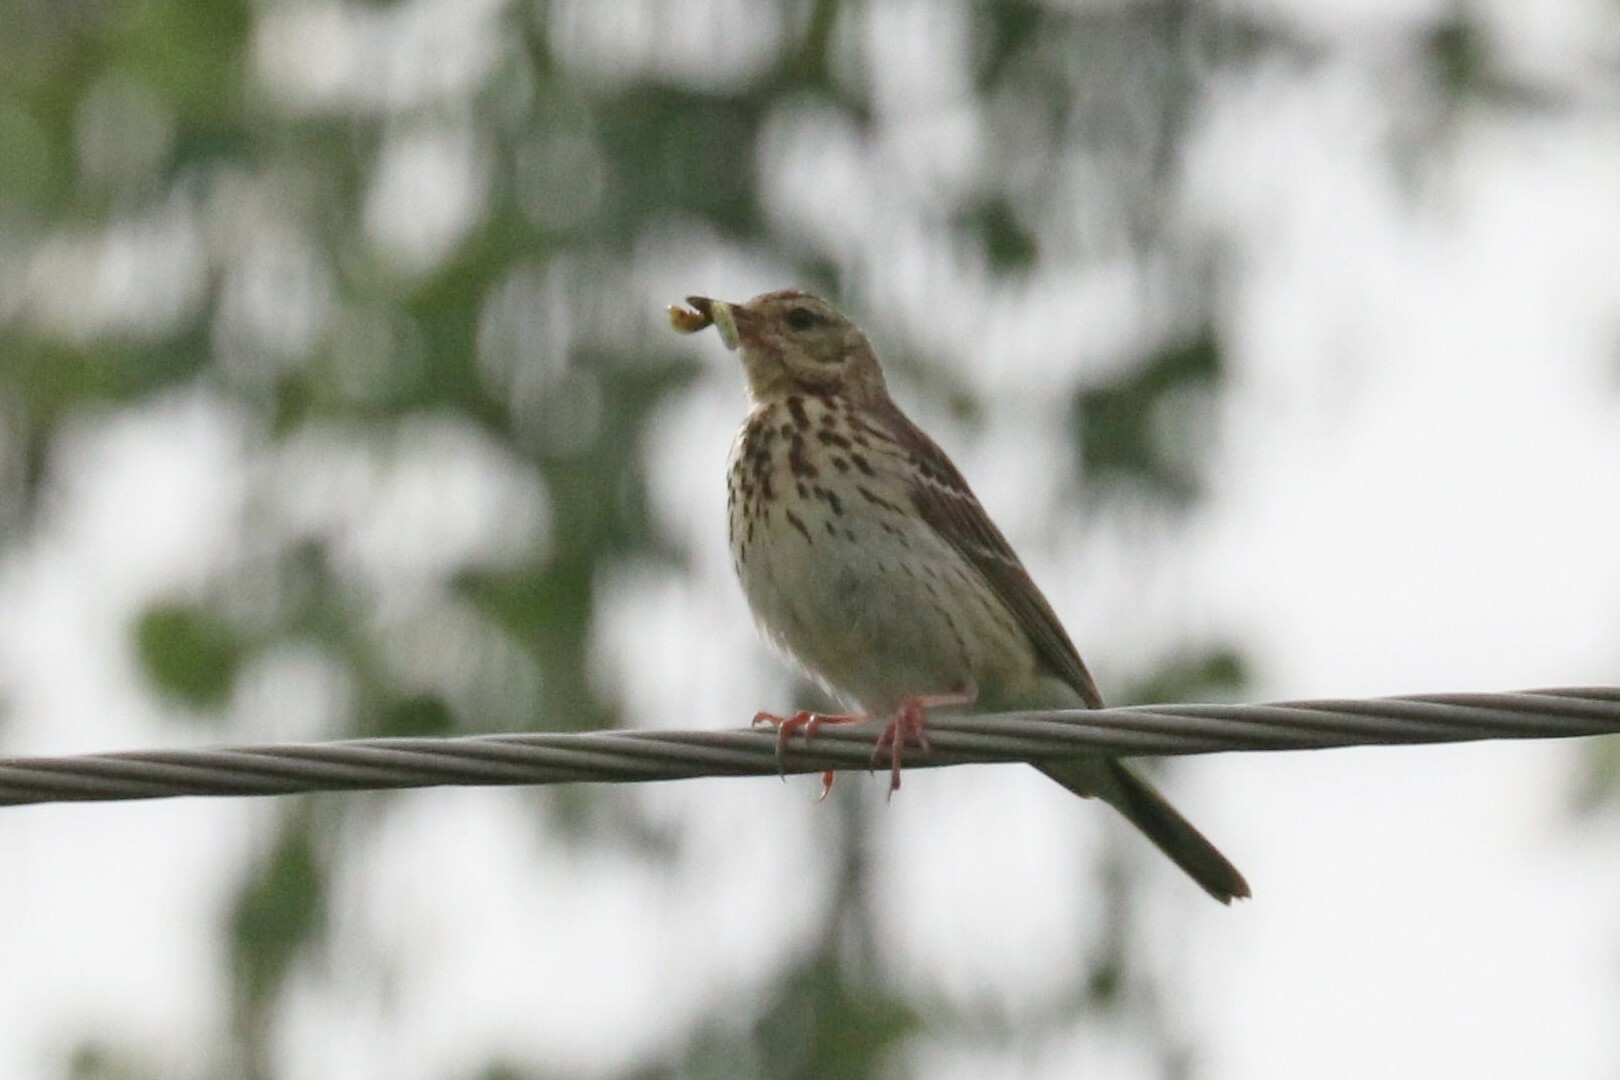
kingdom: Animalia
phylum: Chordata
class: Aves
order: Passeriformes
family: Motacillidae
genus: Anthus
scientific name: Anthus trivialis
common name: Tree pipit
